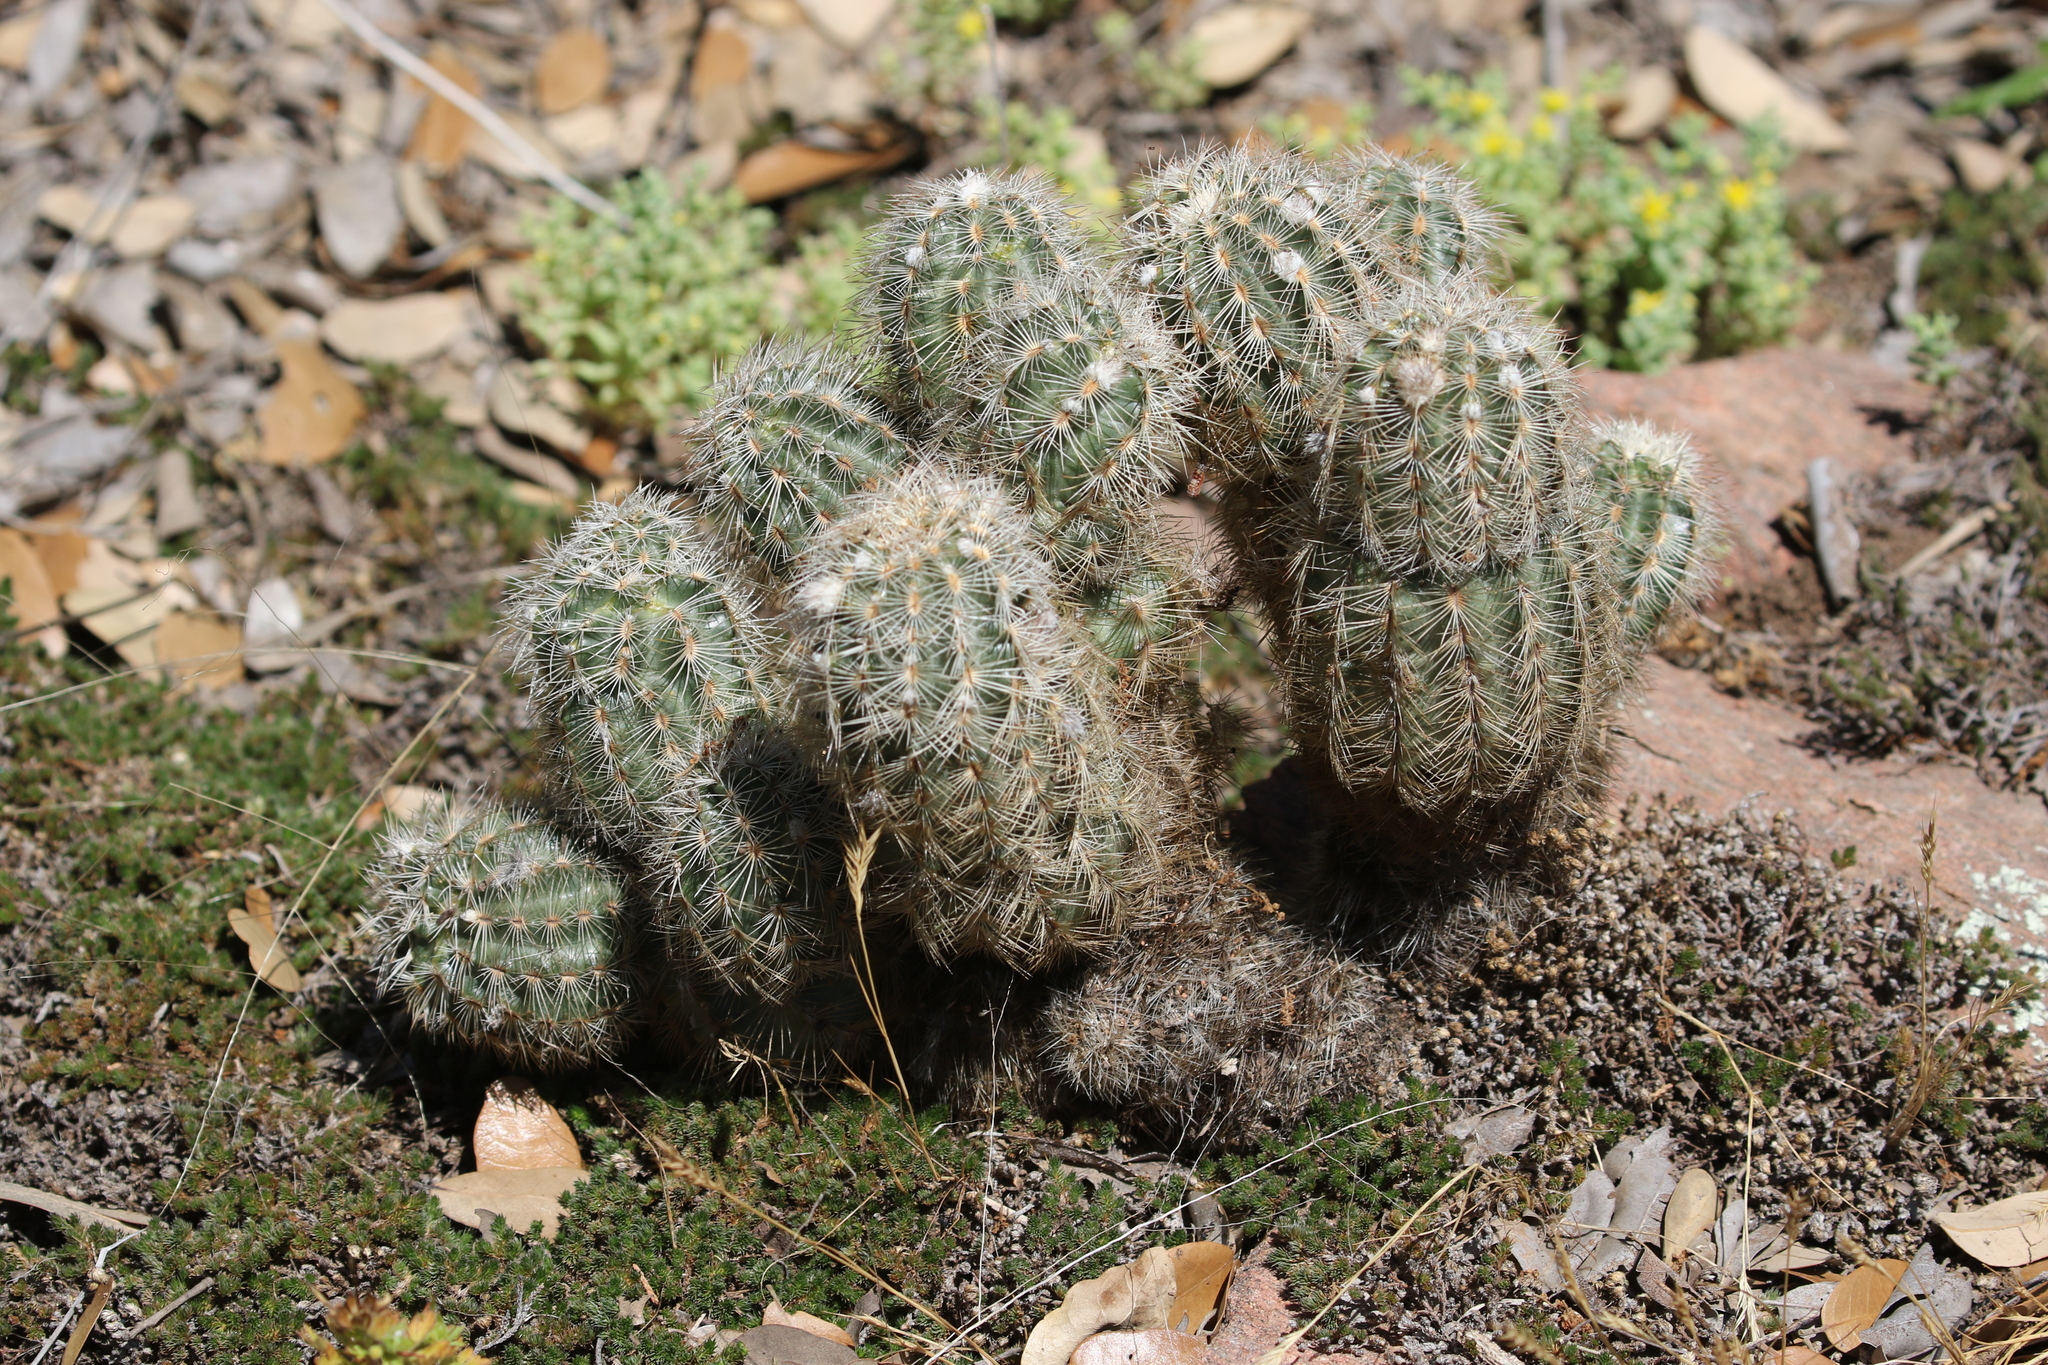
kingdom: Plantae
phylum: Tracheophyta
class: Magnoliopsida
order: Caryophyllales
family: Cactaceae
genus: Echinocereus
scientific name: Echinocereus reichenbachii
